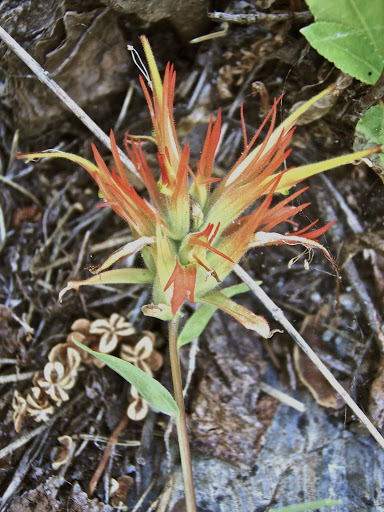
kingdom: Plantae
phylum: Tracheophyta
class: Magnoliopsida
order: Lamiales
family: Orobanchaceae
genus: Castilleja
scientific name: Castilleja miniata
